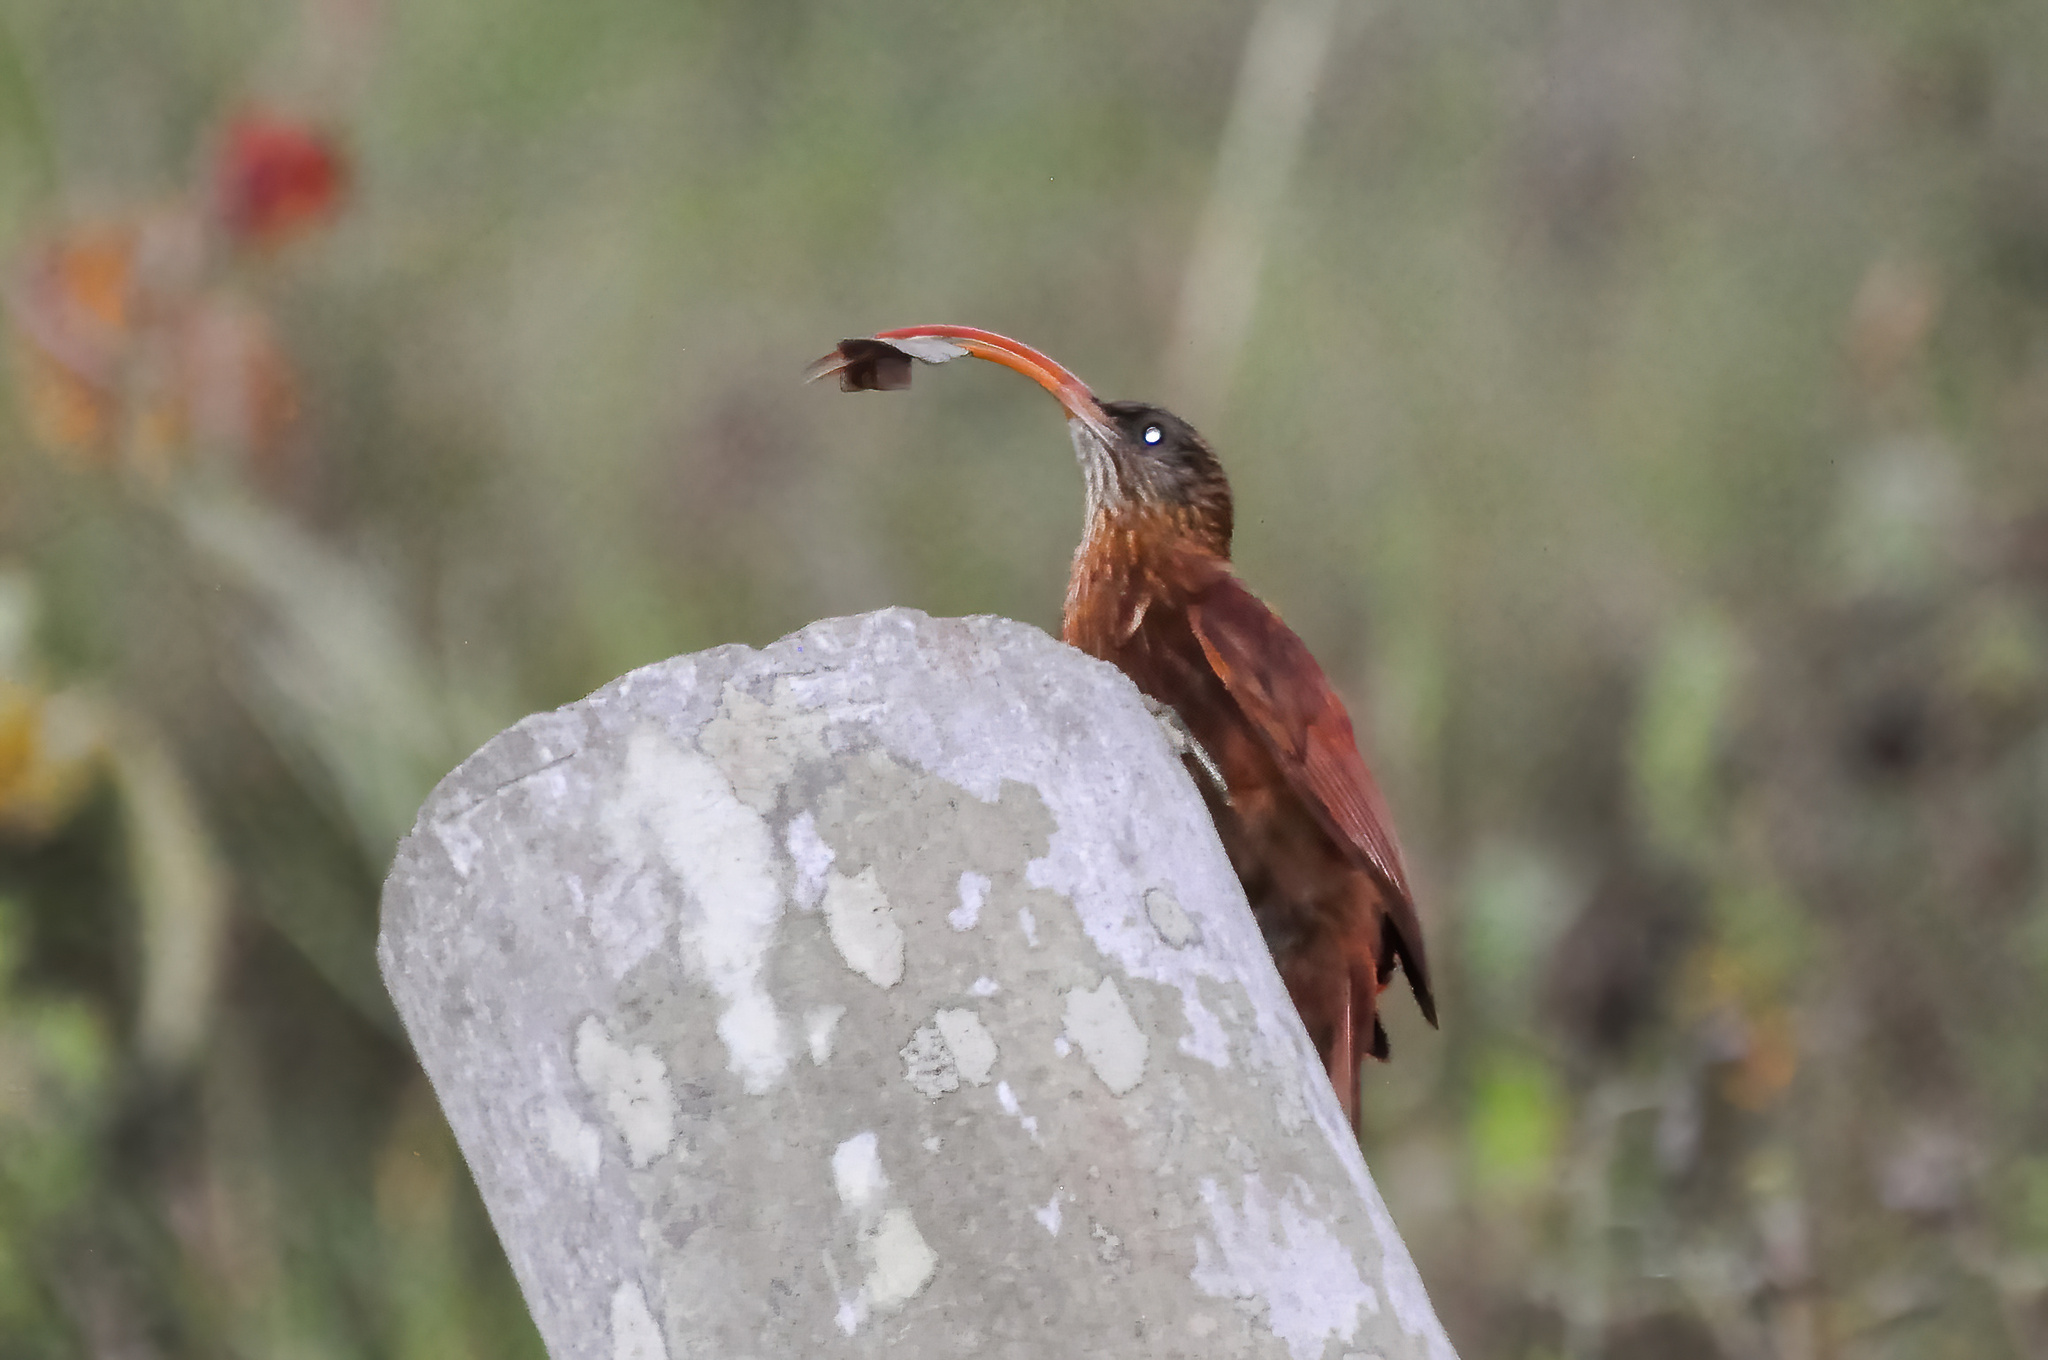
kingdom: Animalia
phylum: Chordata
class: Aves
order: Passeriformes
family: Furnariidae
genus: Campylorhamphus
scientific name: Campylorhamphus trochilirostris
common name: Red-billed scythebill
